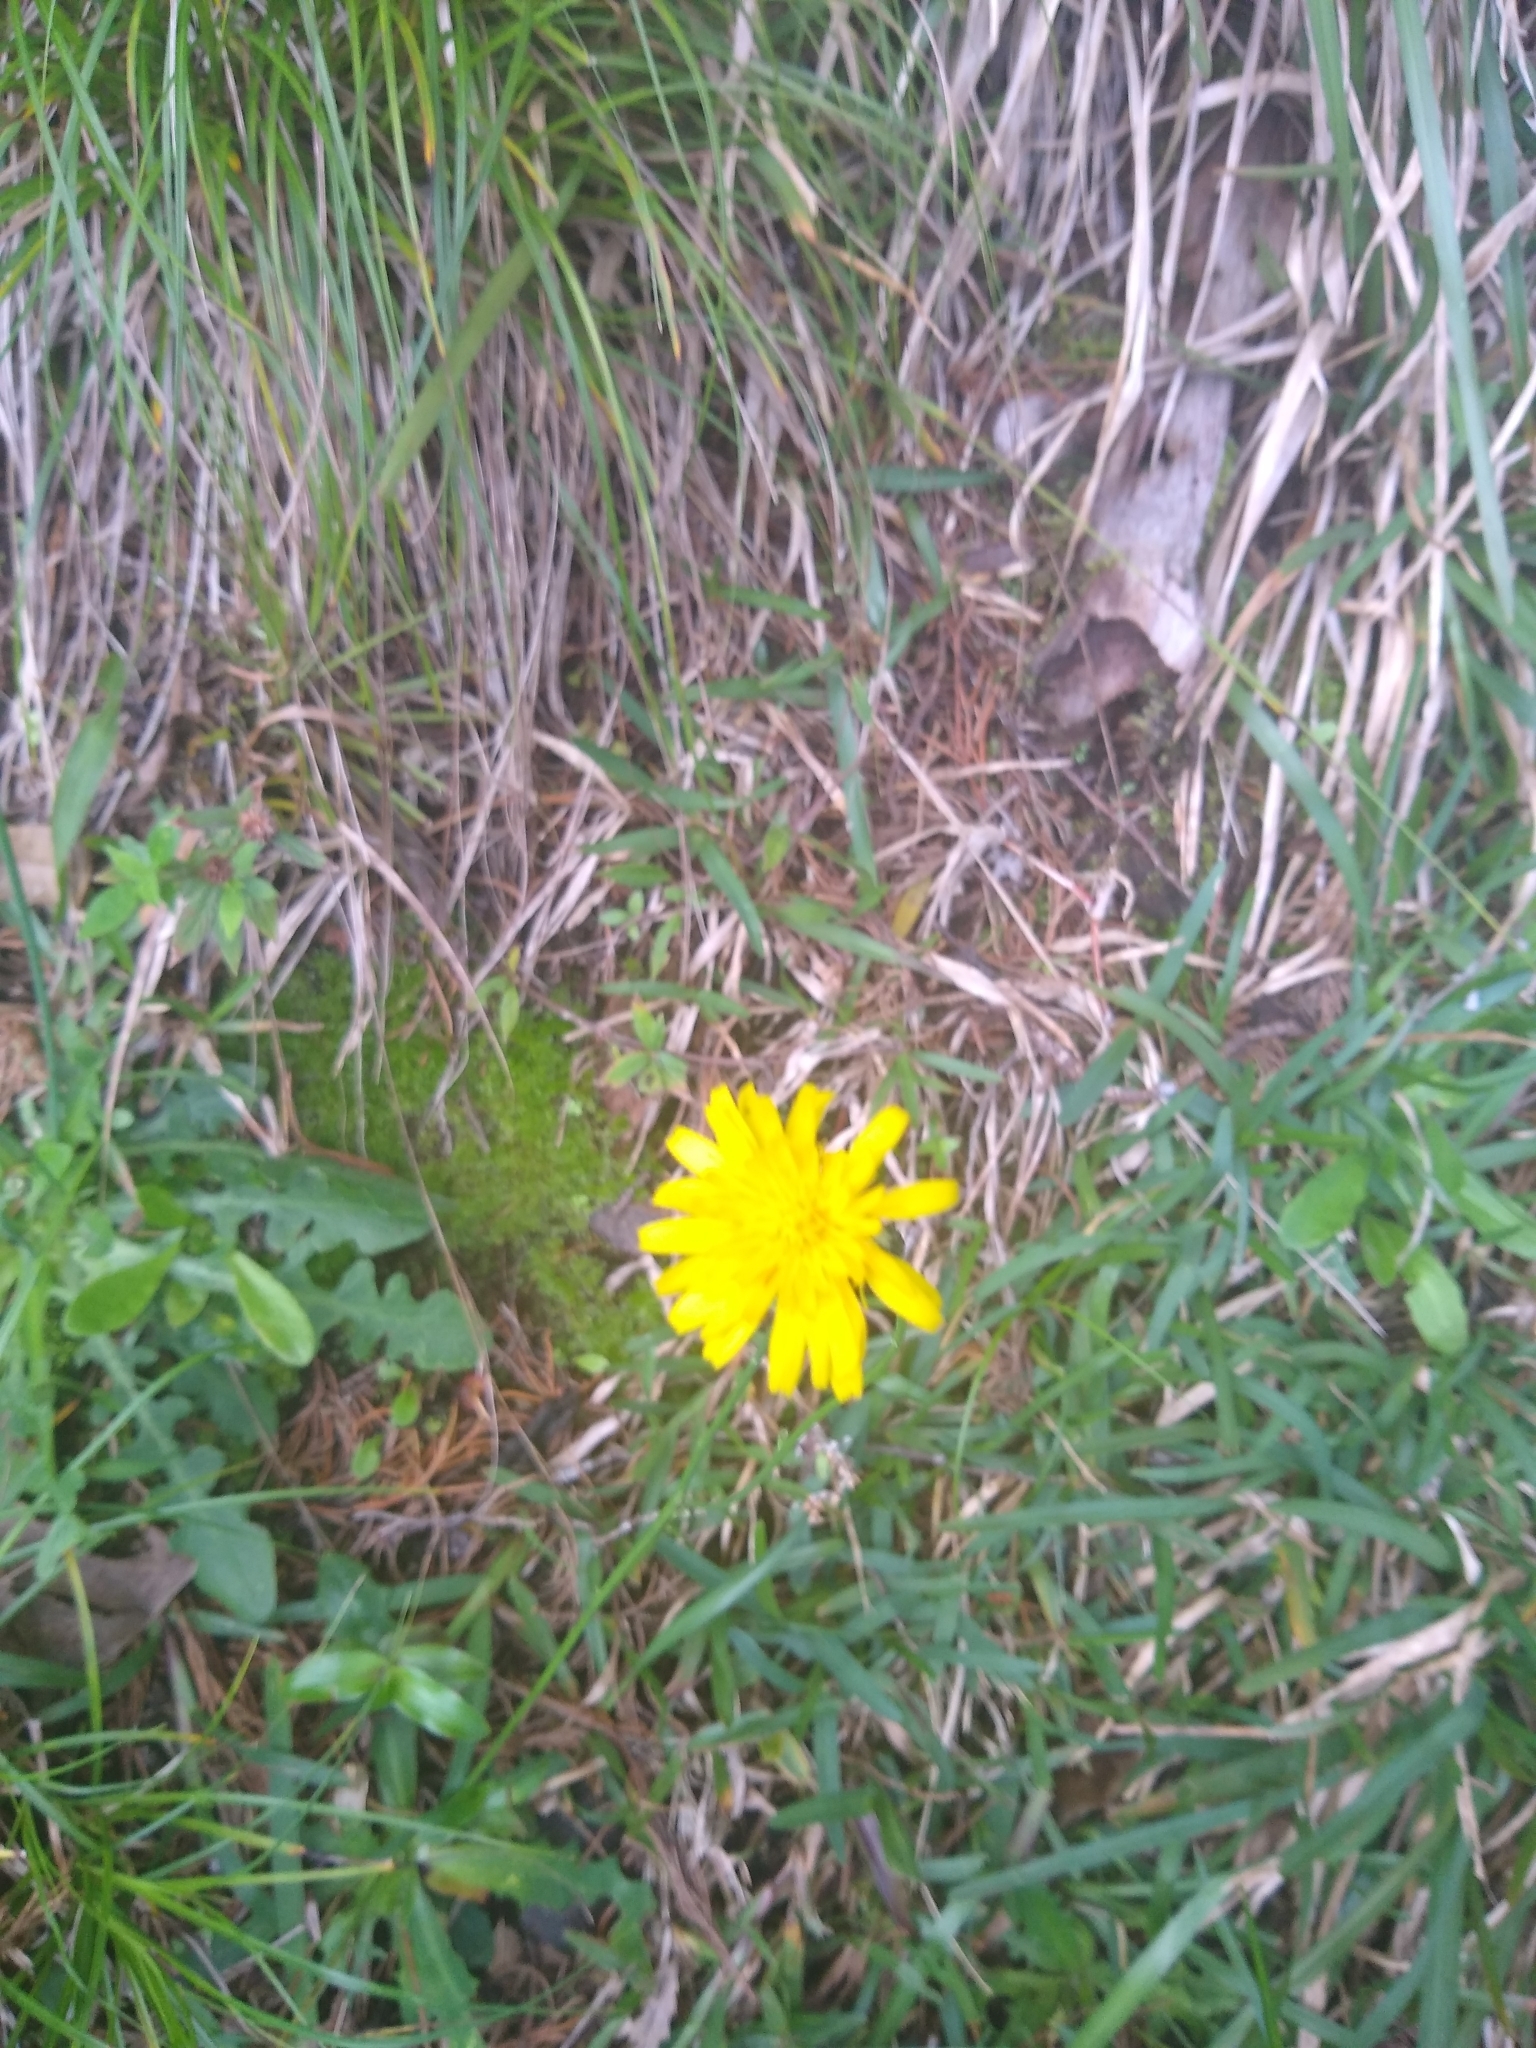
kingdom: Plantae
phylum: Tracheophyta
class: Magnoliopsida
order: Asterales
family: Asteraceae
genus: Taraxacum
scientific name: Taraxacum officinale
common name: Common dandelion
